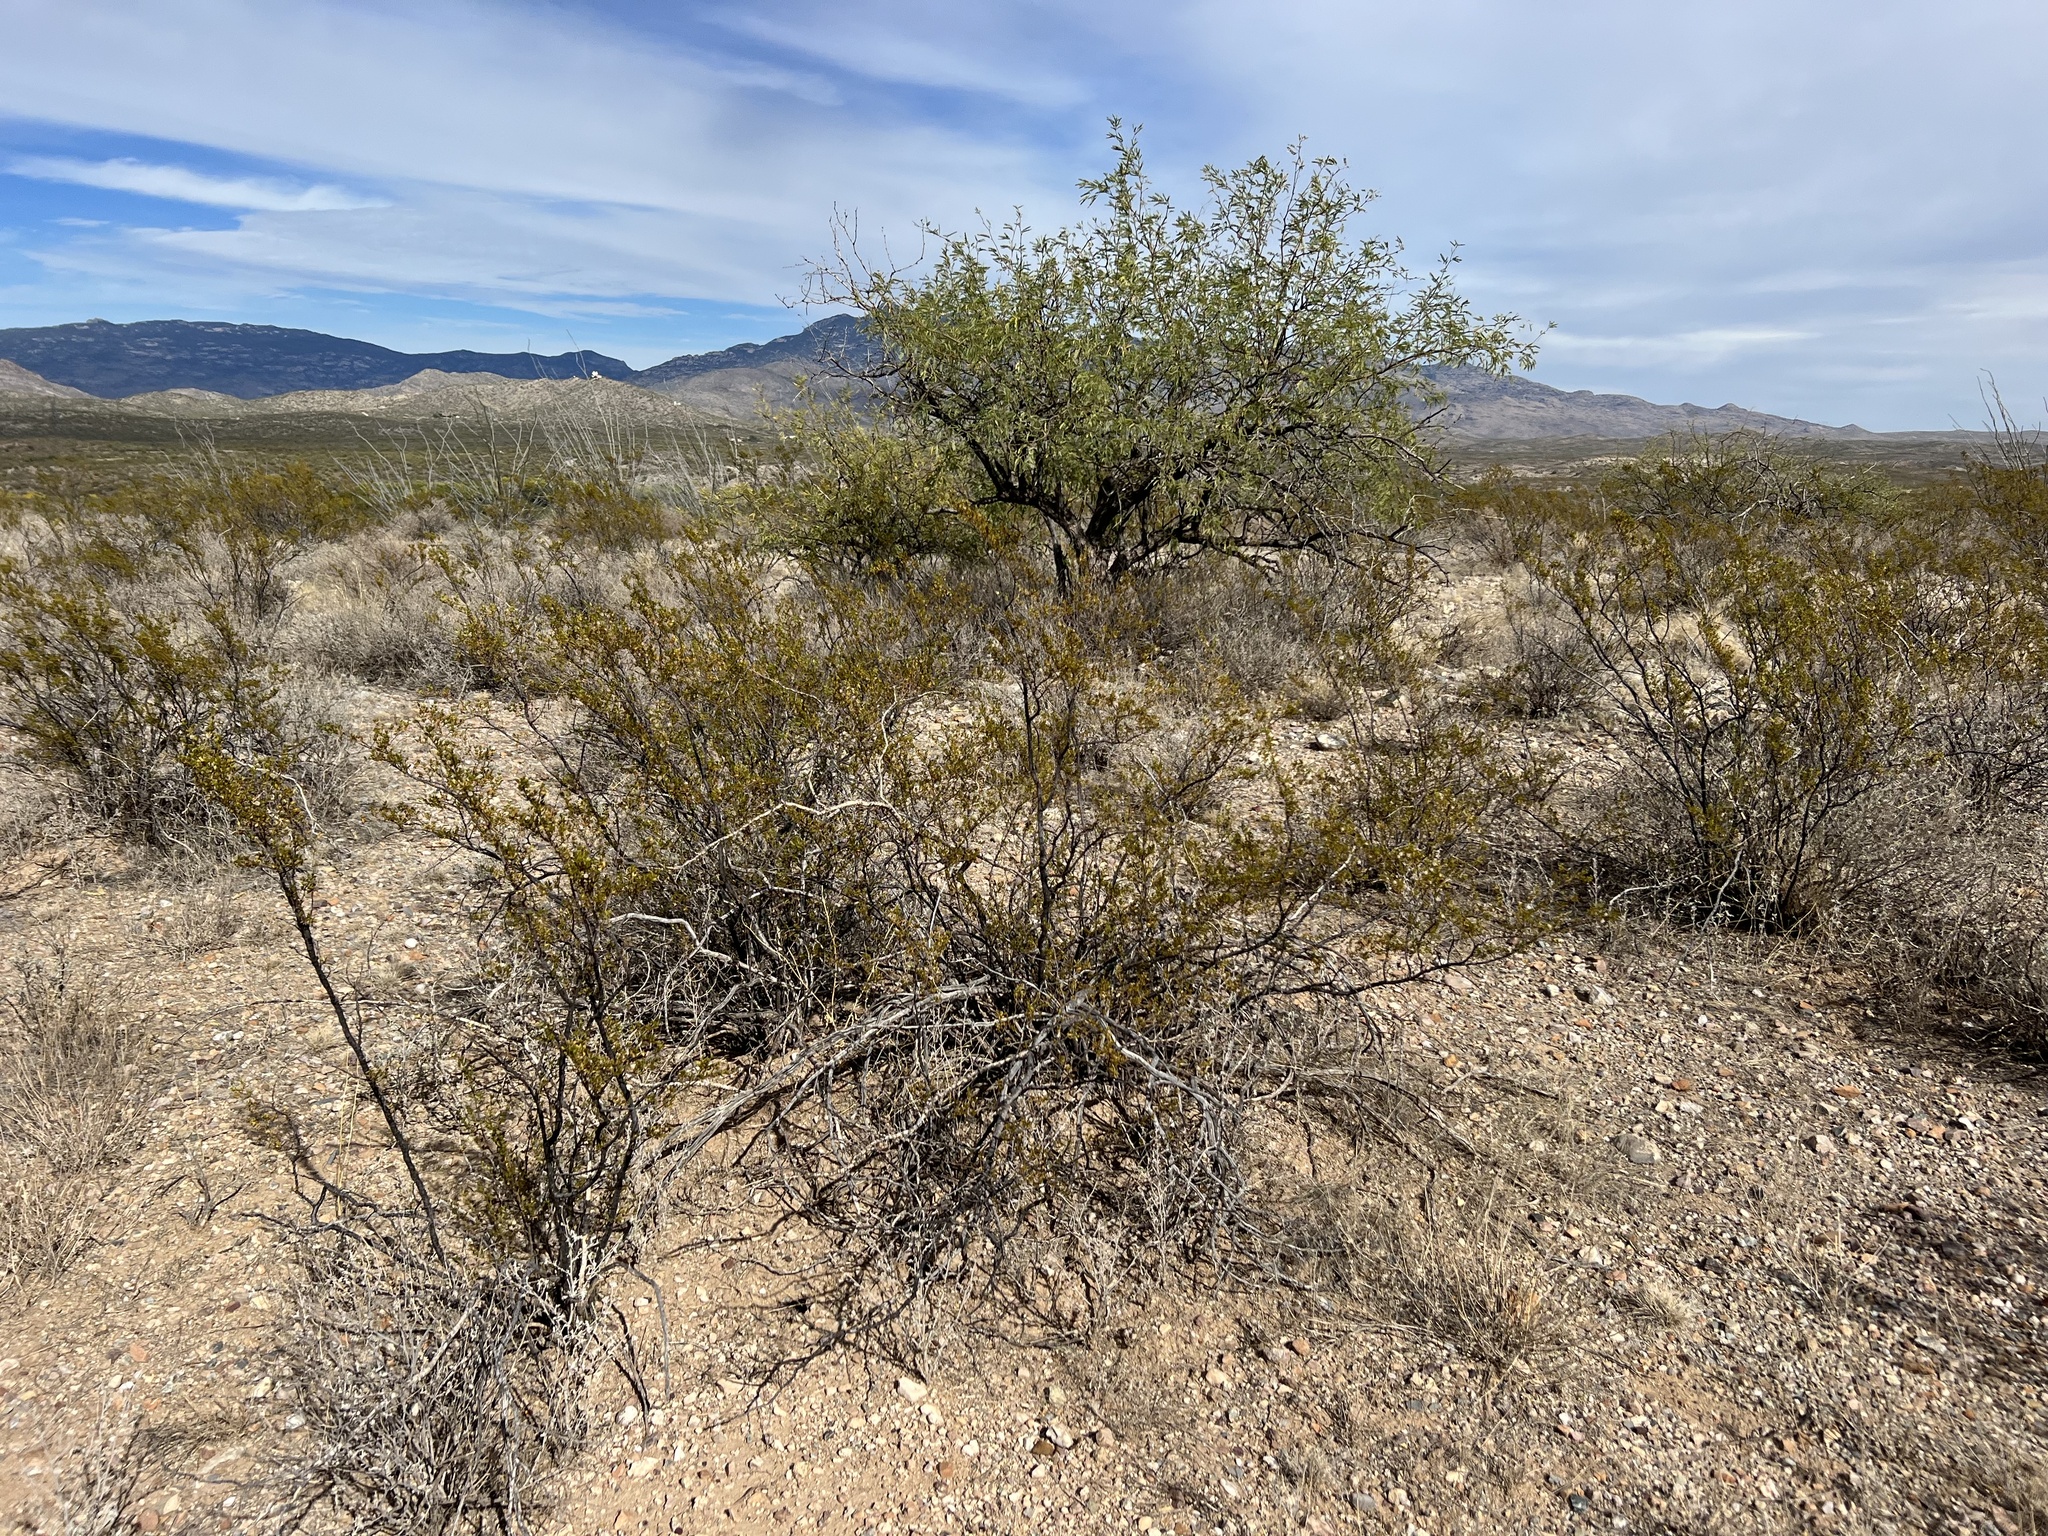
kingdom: Plantae
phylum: Tracheophyta
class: Magnoliopsida
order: Zygophyllales
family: Zygophyllaceae
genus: Larrea
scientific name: Larrea tridentata
